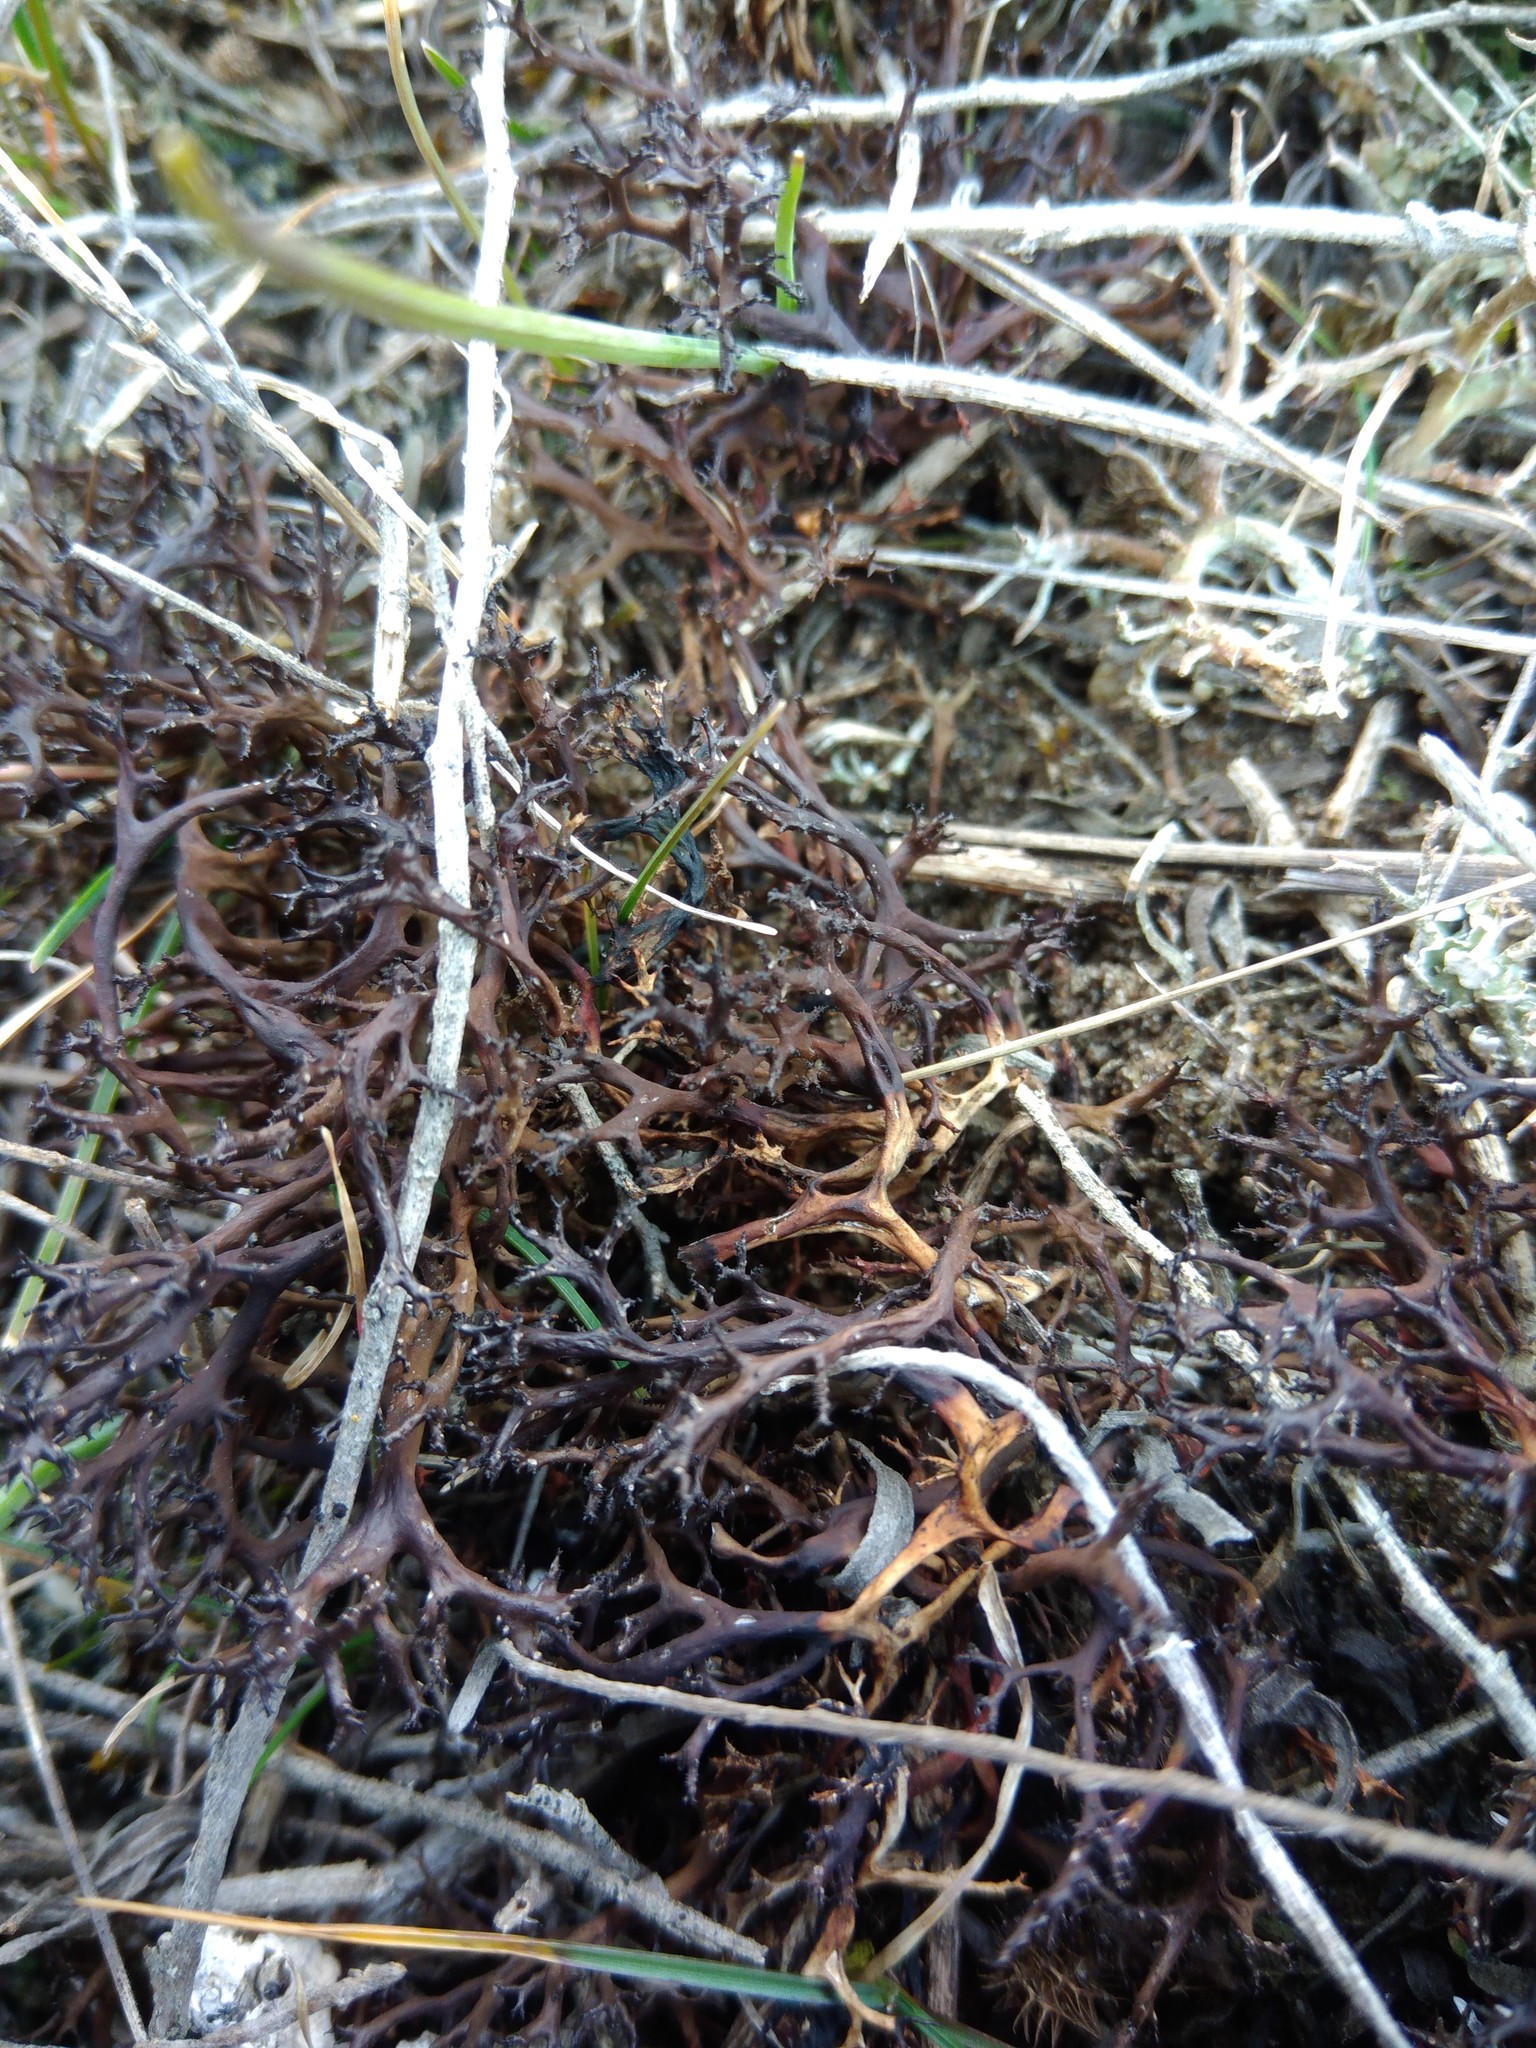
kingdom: Fungi
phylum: Ascomycota
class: Lecanoromycetes
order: Lecanorales
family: Parmeliaceae
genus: Cetraria
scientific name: Cetraria aculeata
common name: Spiny heath lichen
